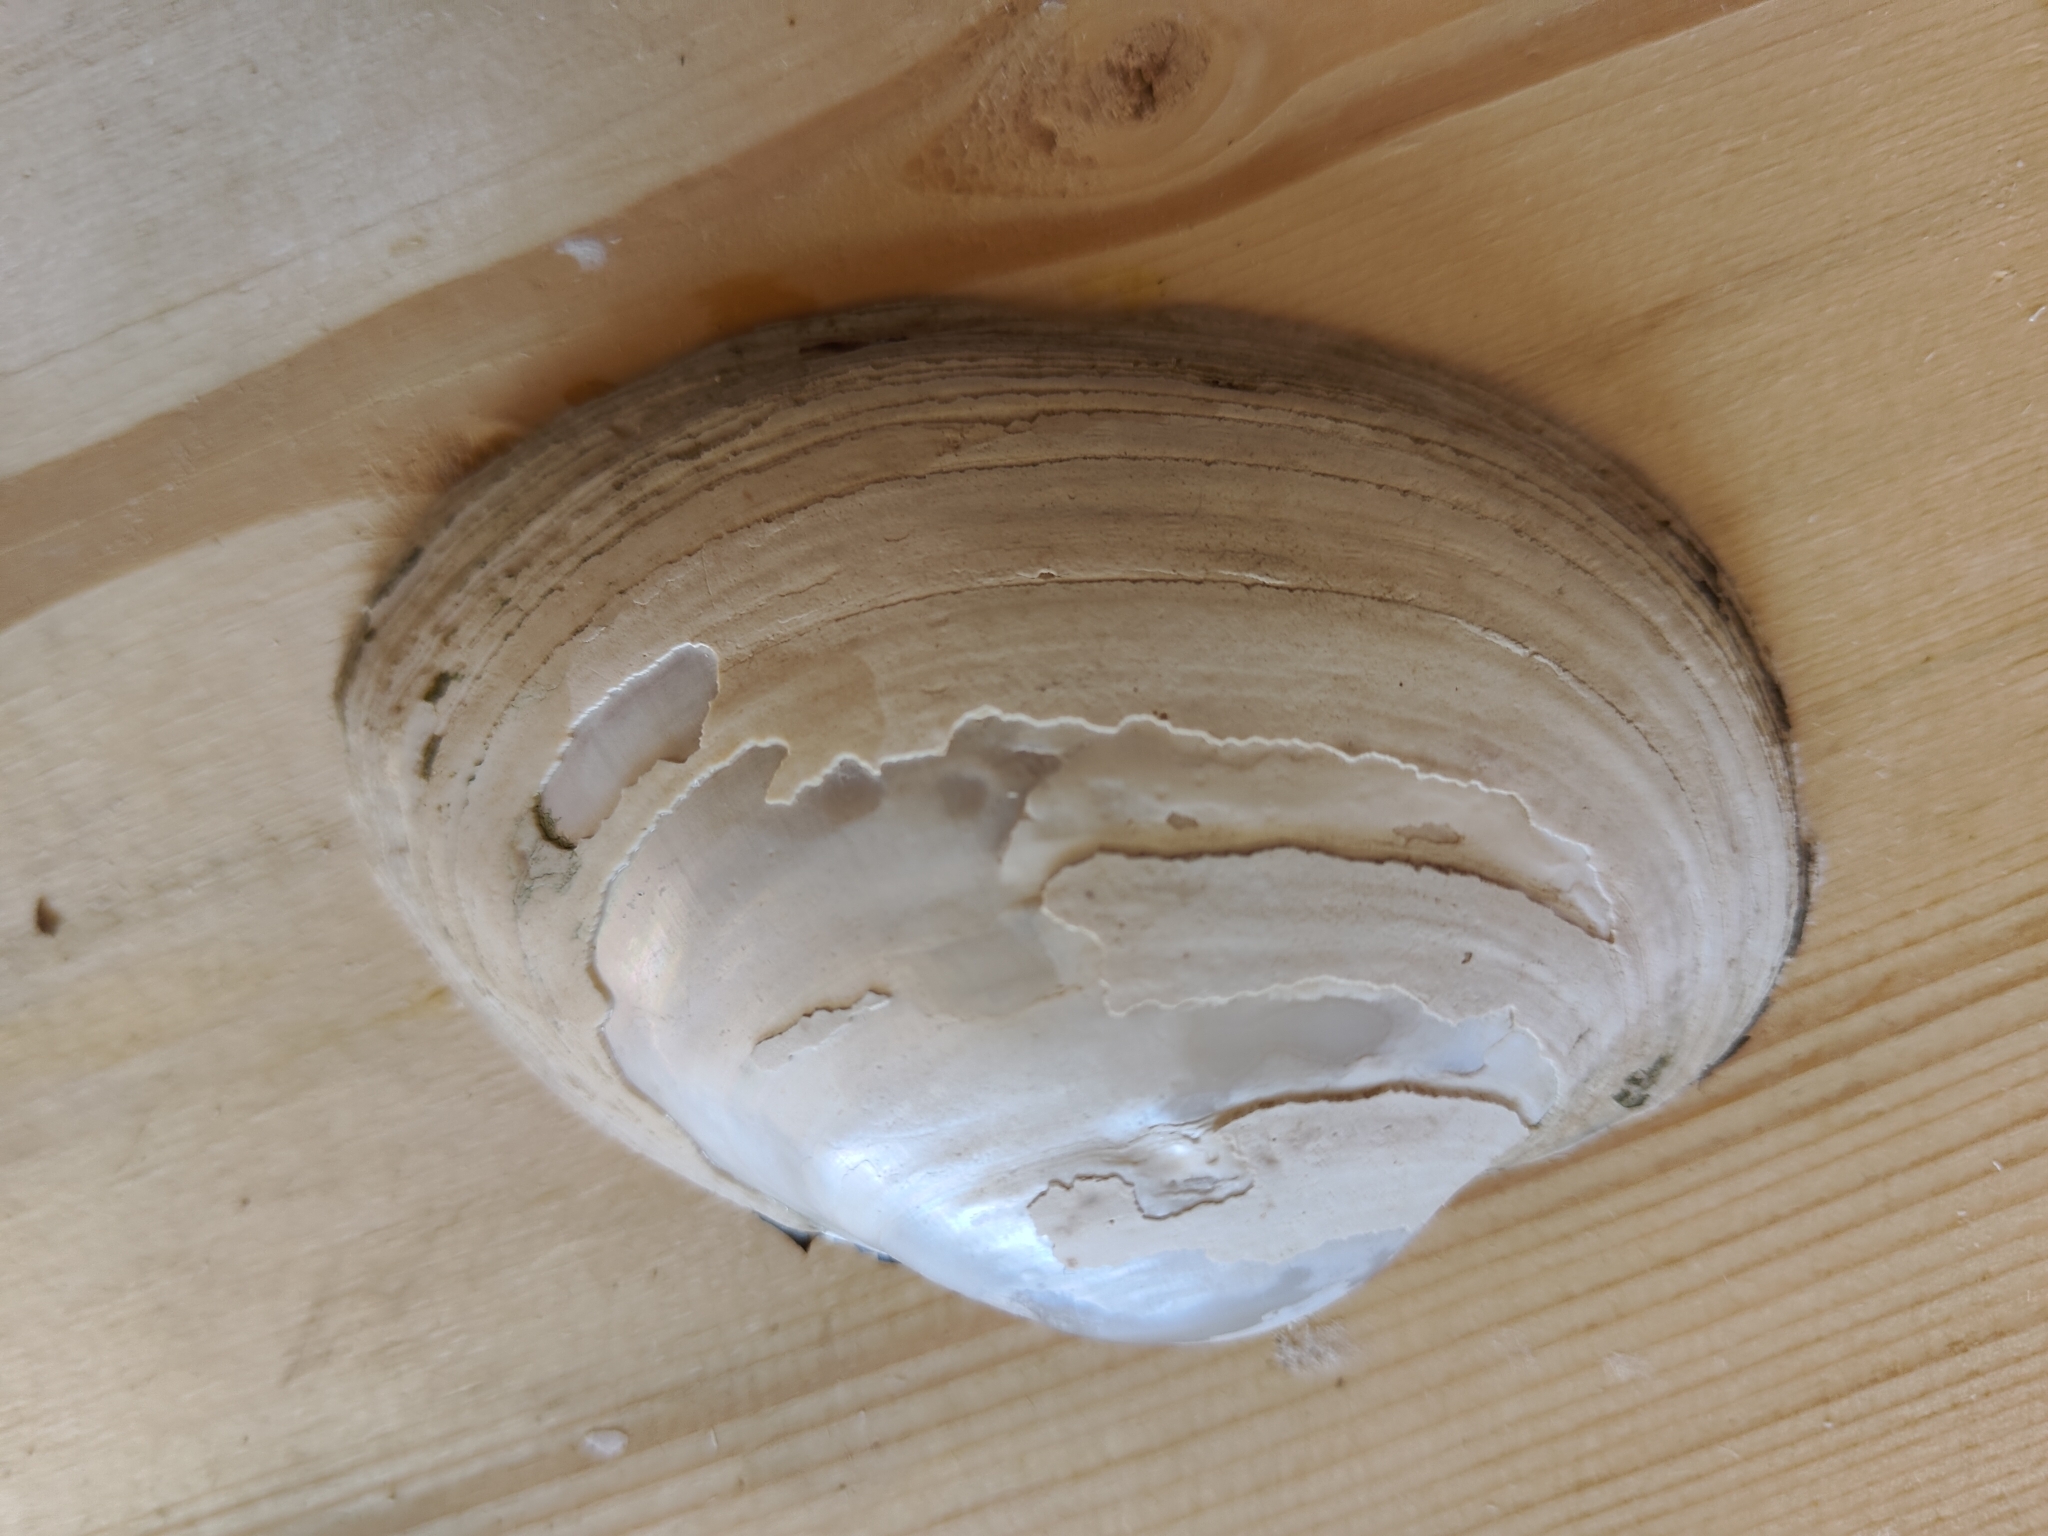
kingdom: Animalia
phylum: Mollusca
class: Bivalvia
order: Unionida
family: Unionidae
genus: Lampsilis
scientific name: Lampsilis cardium
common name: Plain pocketbook
